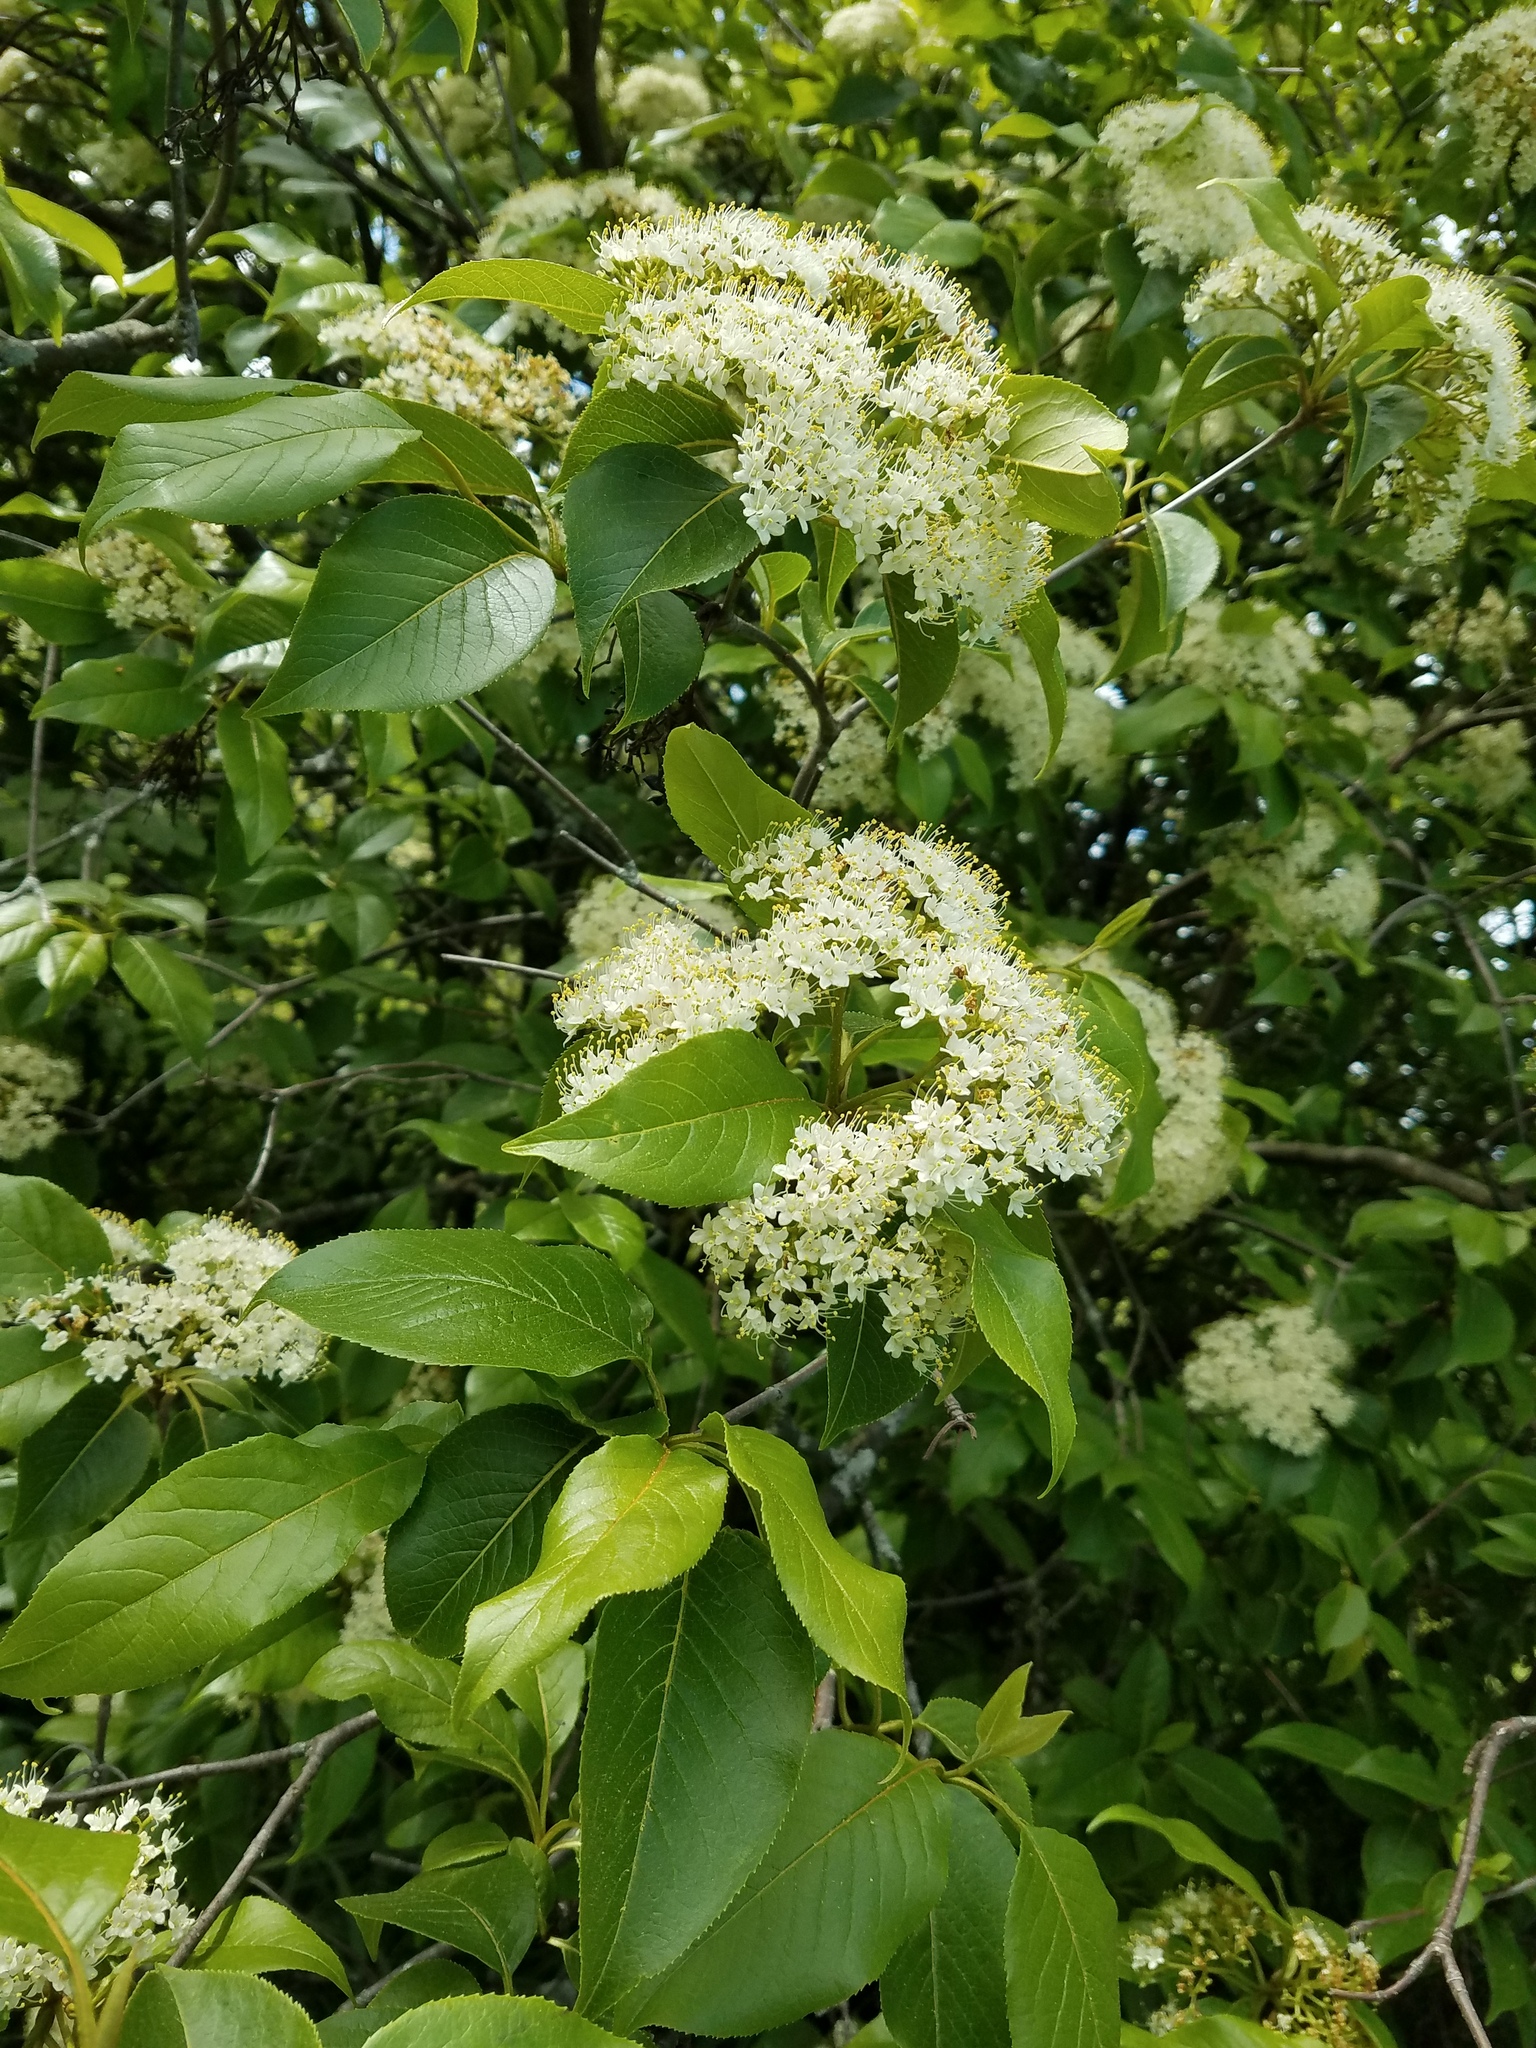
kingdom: Plantae
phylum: Tracheophyta
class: Magnoliopsida
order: Dipsacales
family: Viburnaceae
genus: Viburnum
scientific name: Viburnum lentago
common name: Black haw
